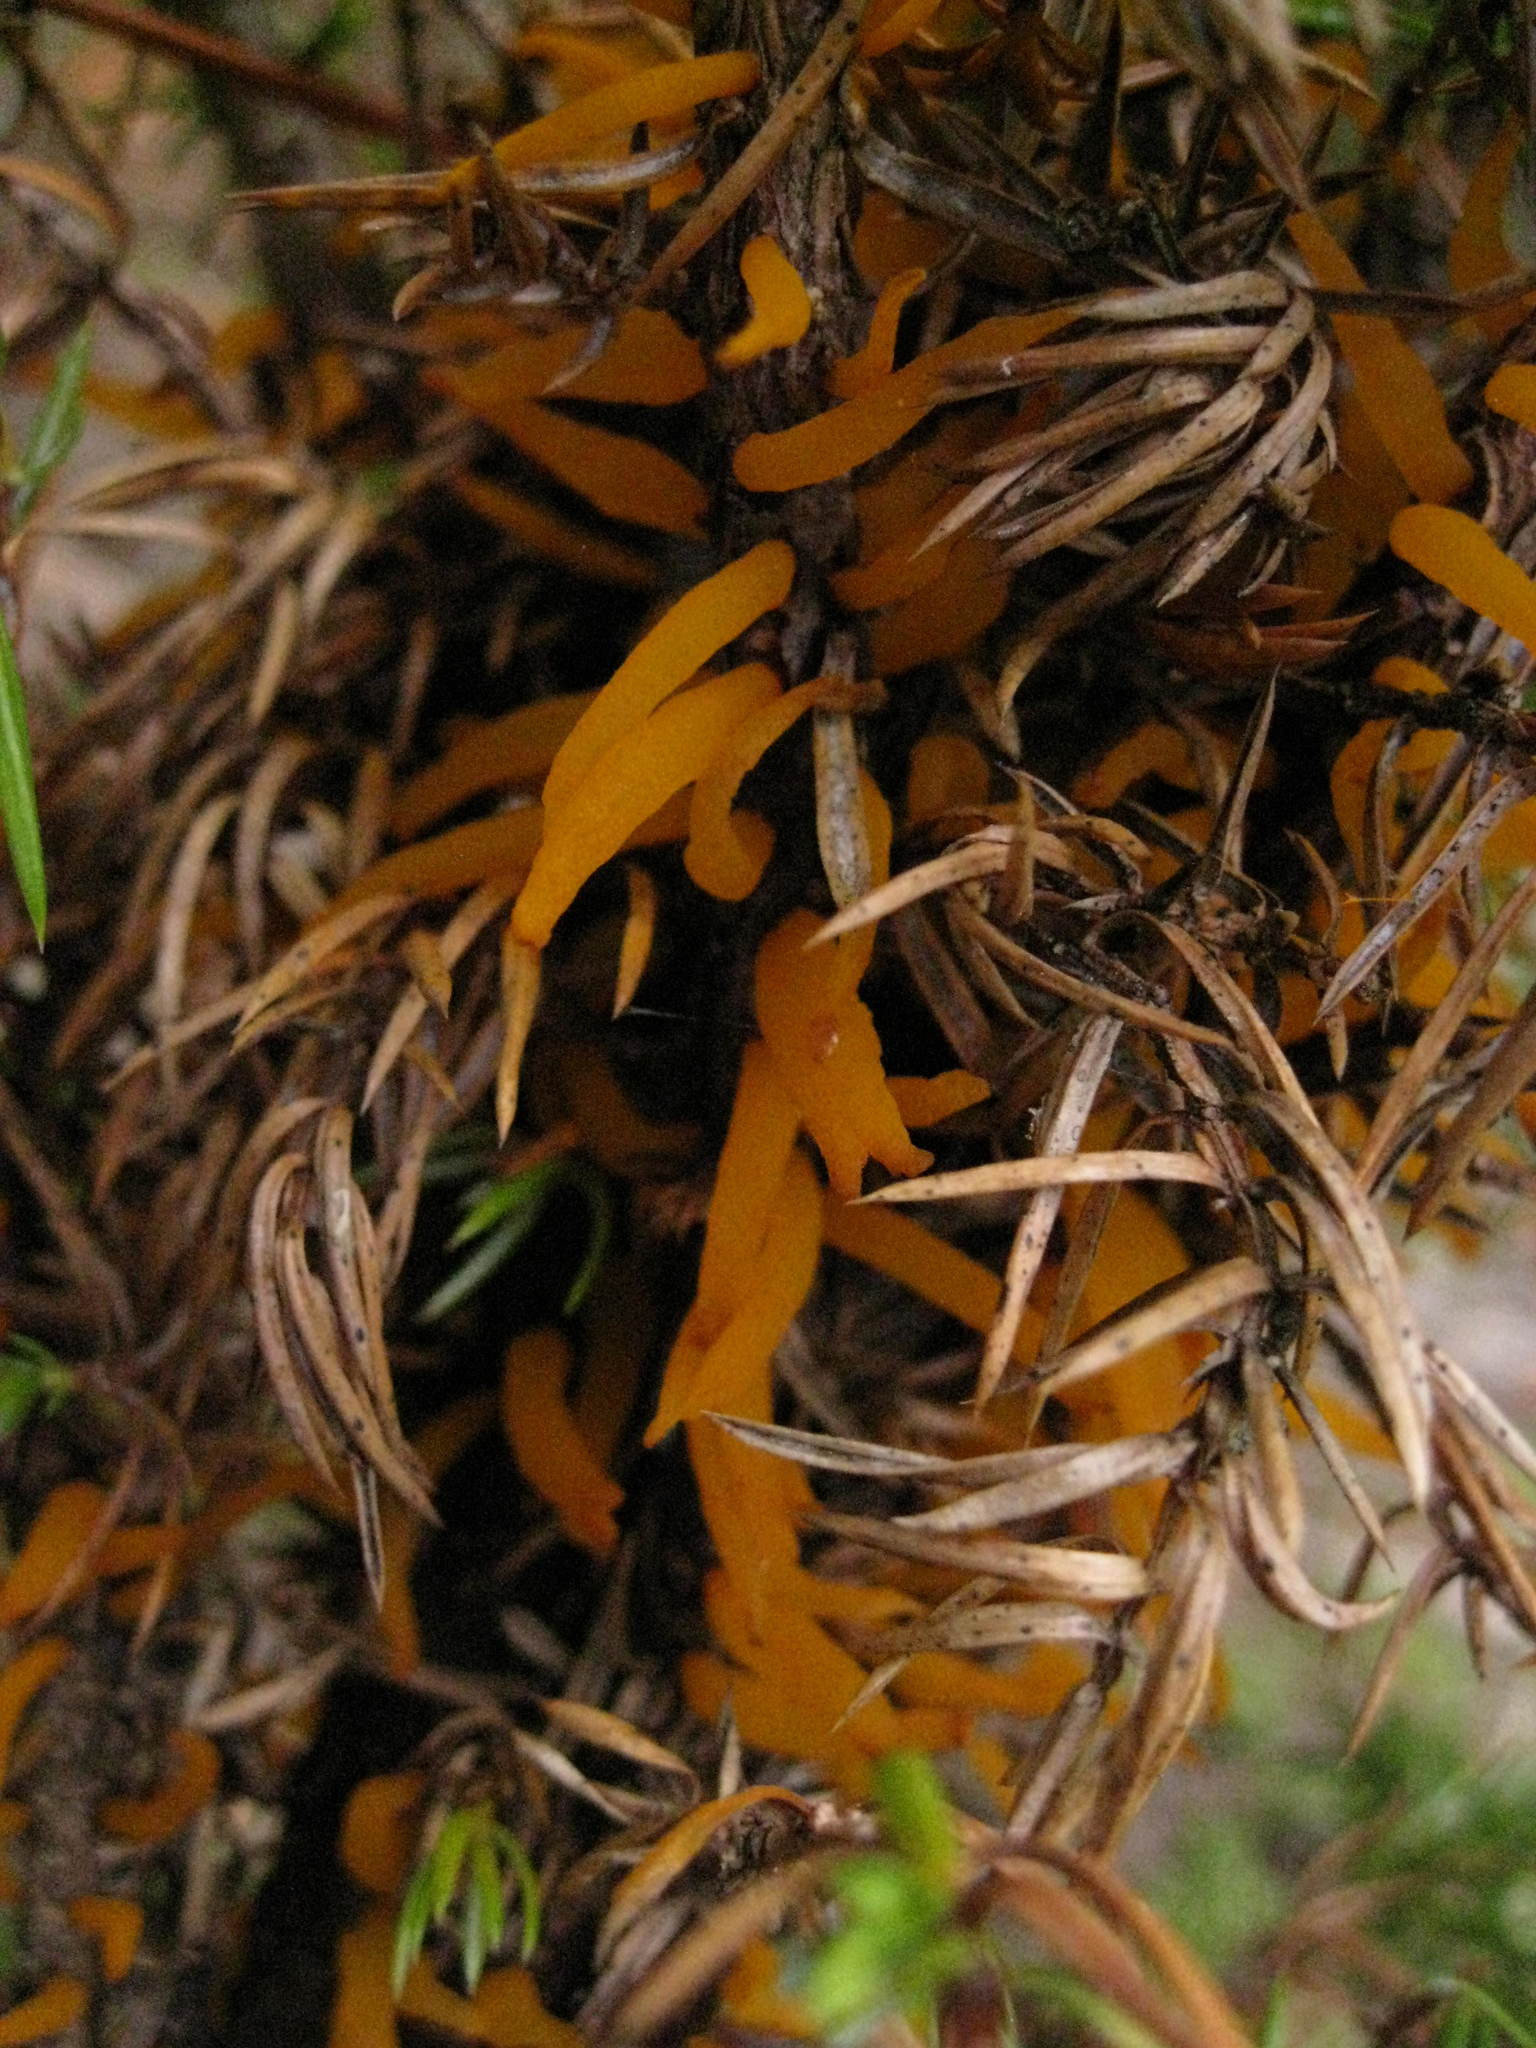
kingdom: Fungi
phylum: Basidiomycota
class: Pucciniomycetes
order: Pucciniales
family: Gymnosporangiaceae
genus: Gymnosporangium
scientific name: Gymnosporangium juniperi-virginianae
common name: Juniper-apple rust
